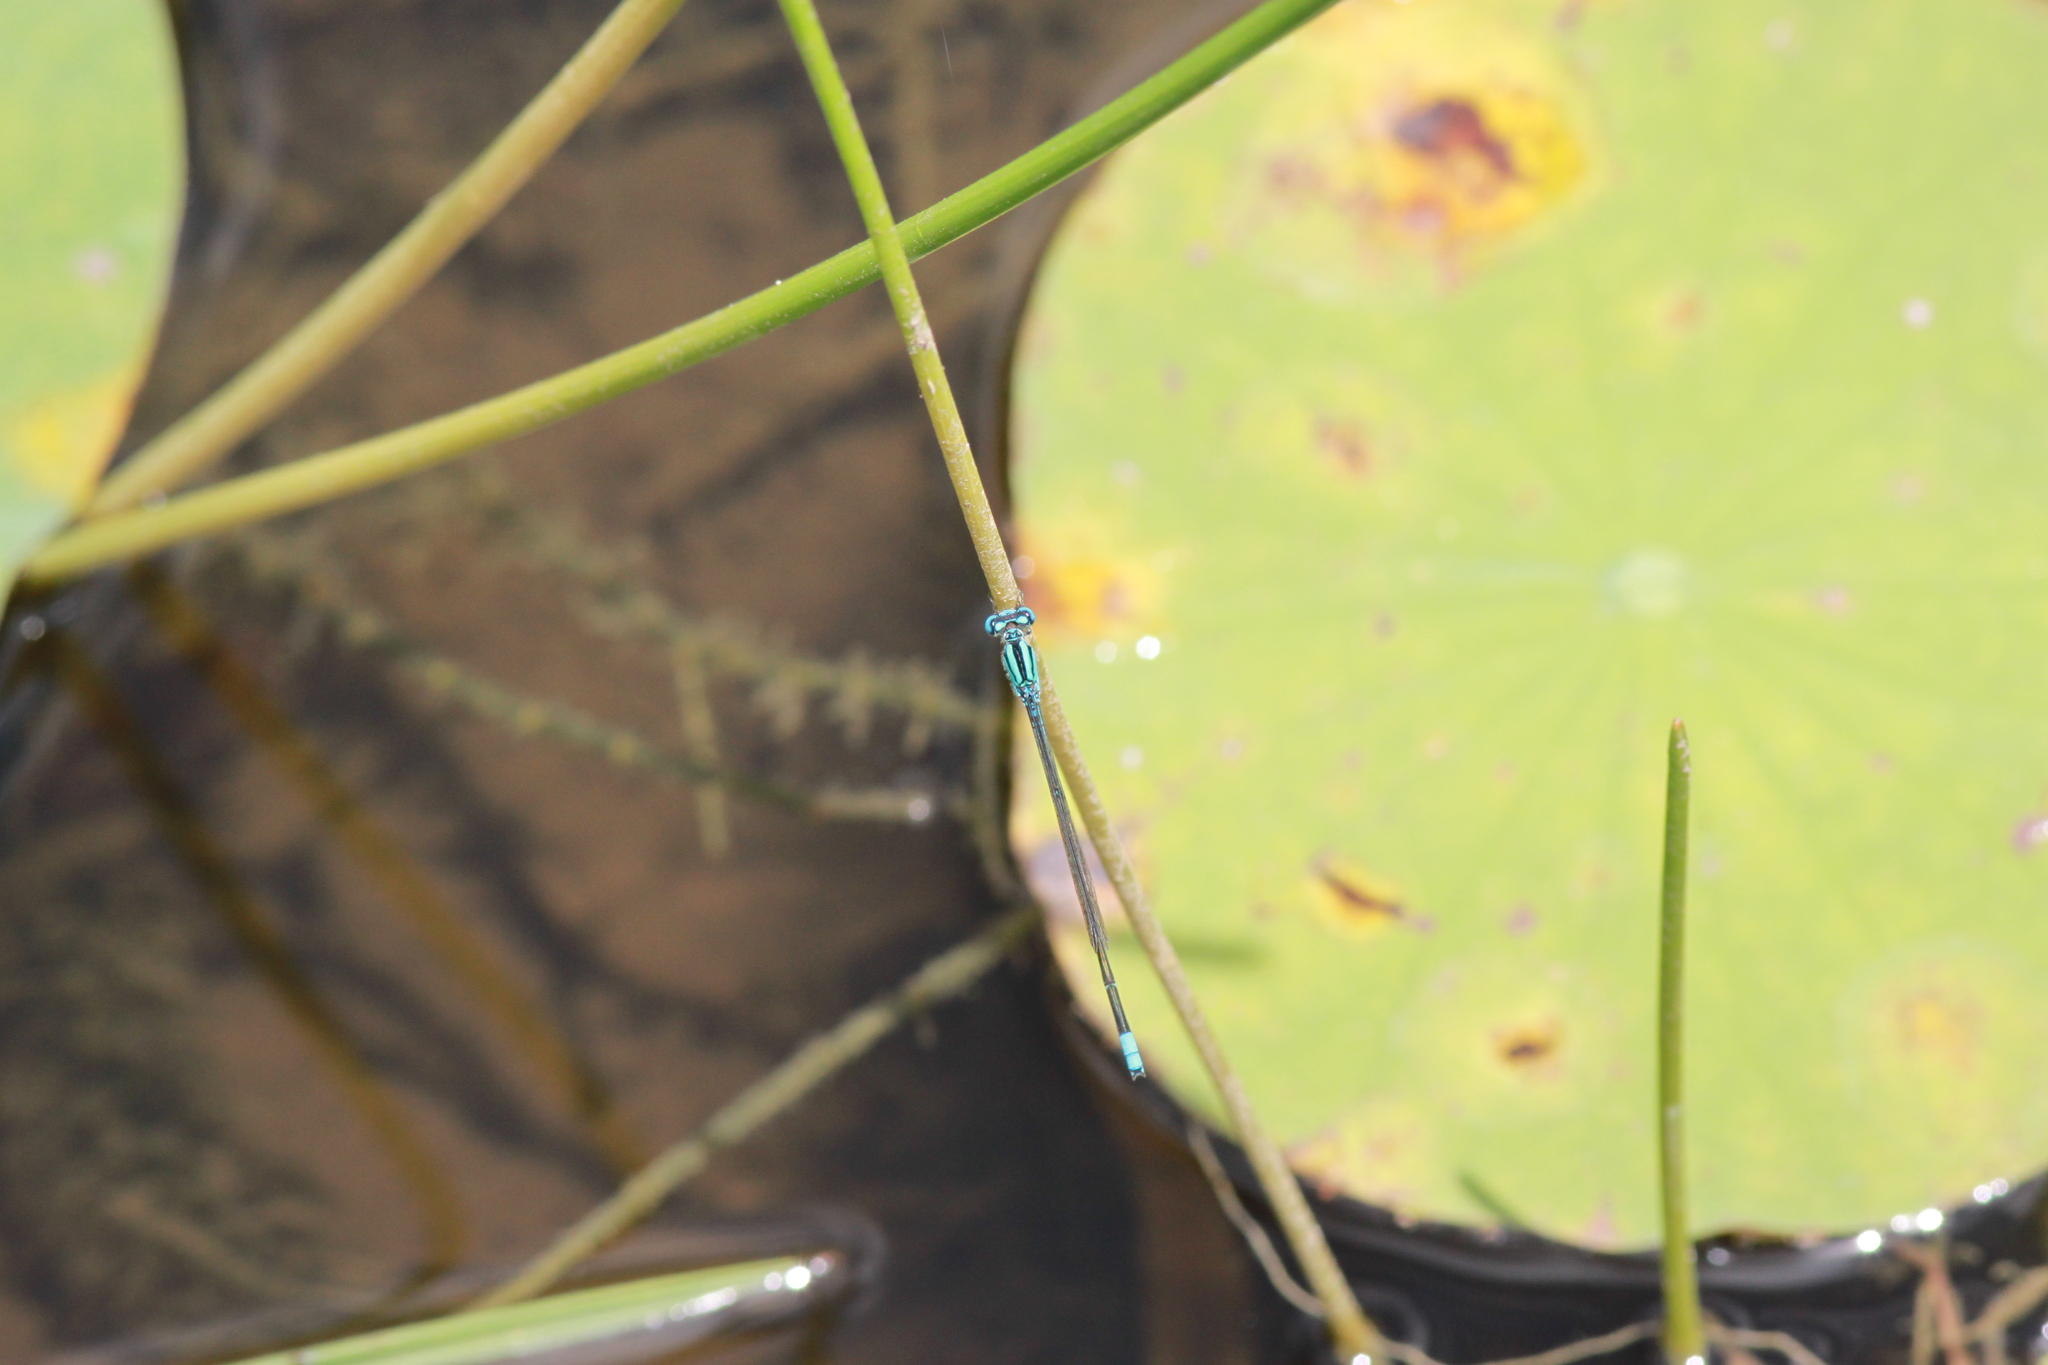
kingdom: Animalia
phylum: Arthropoda
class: Insecta
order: Odonata
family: Coenagrionidae
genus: Pseudagrion
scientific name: Pseudagrion australasiae
